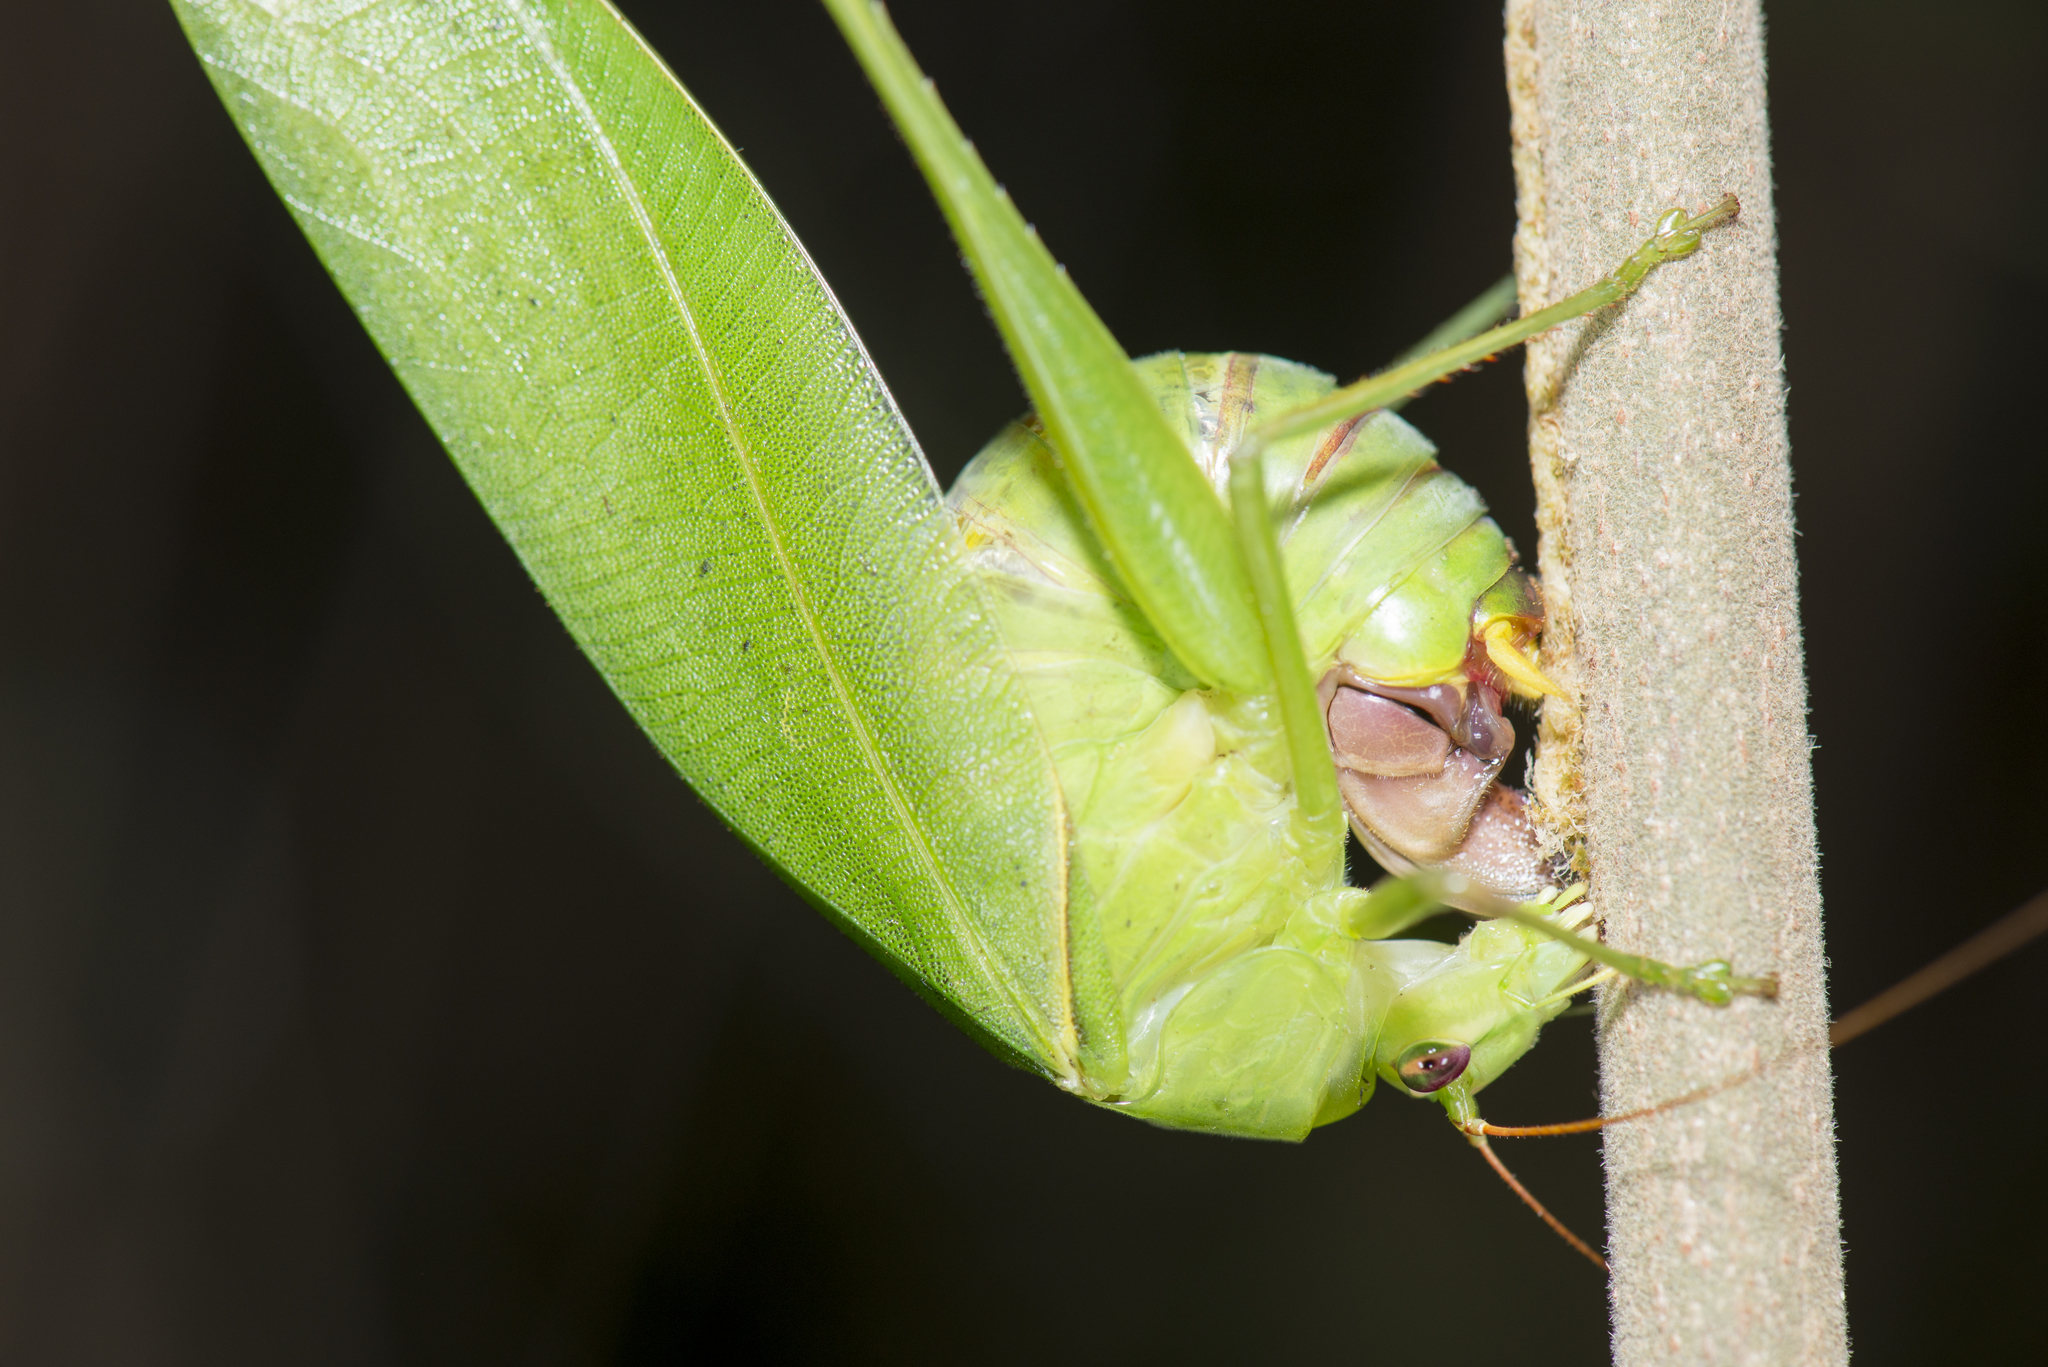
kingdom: Animalia
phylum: Arthropoda
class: Insecta
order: Orthoptera
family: Tettigoniidae
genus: Holochlora
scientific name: Holochlora japonica
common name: Japanese broadwinged katydid
